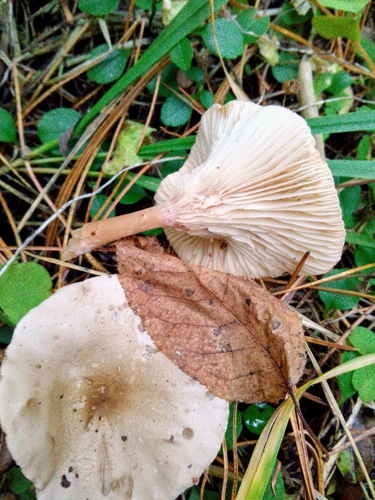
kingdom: Fungi
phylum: Basidiomycota
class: Agaricomycetes
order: Agaricales
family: Tricholomataceae
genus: Clitocybe
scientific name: Clitocybe
